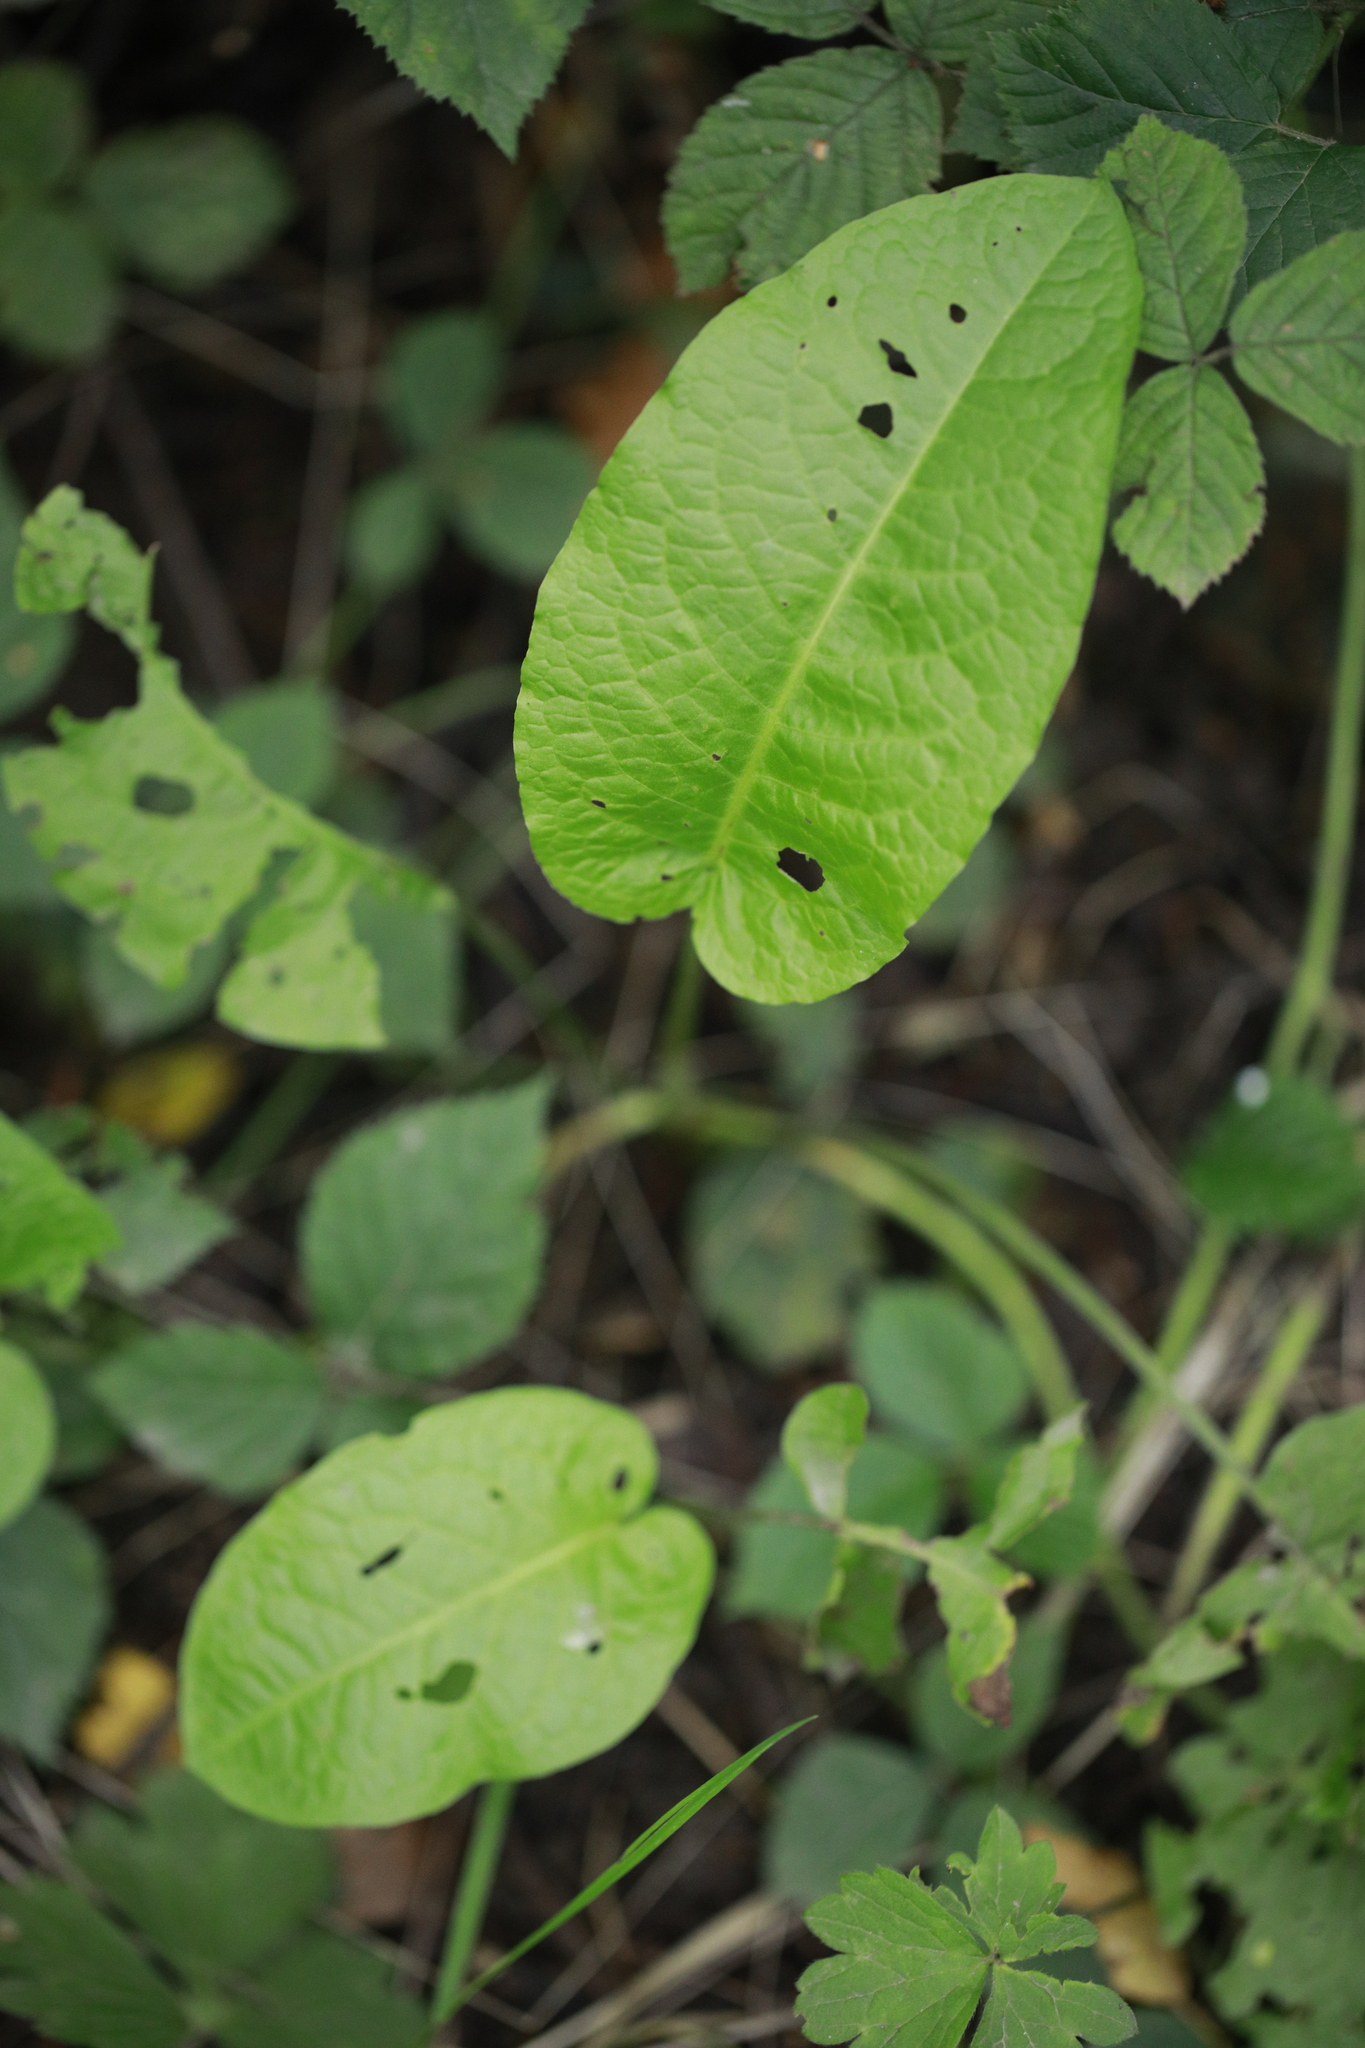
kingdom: Plantae
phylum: Tracheophyta
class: Magnoliopsida
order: Caryophyllales
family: Polygonaceae
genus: Rumex
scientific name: Rumex obtusifolius
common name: Bitter dock
